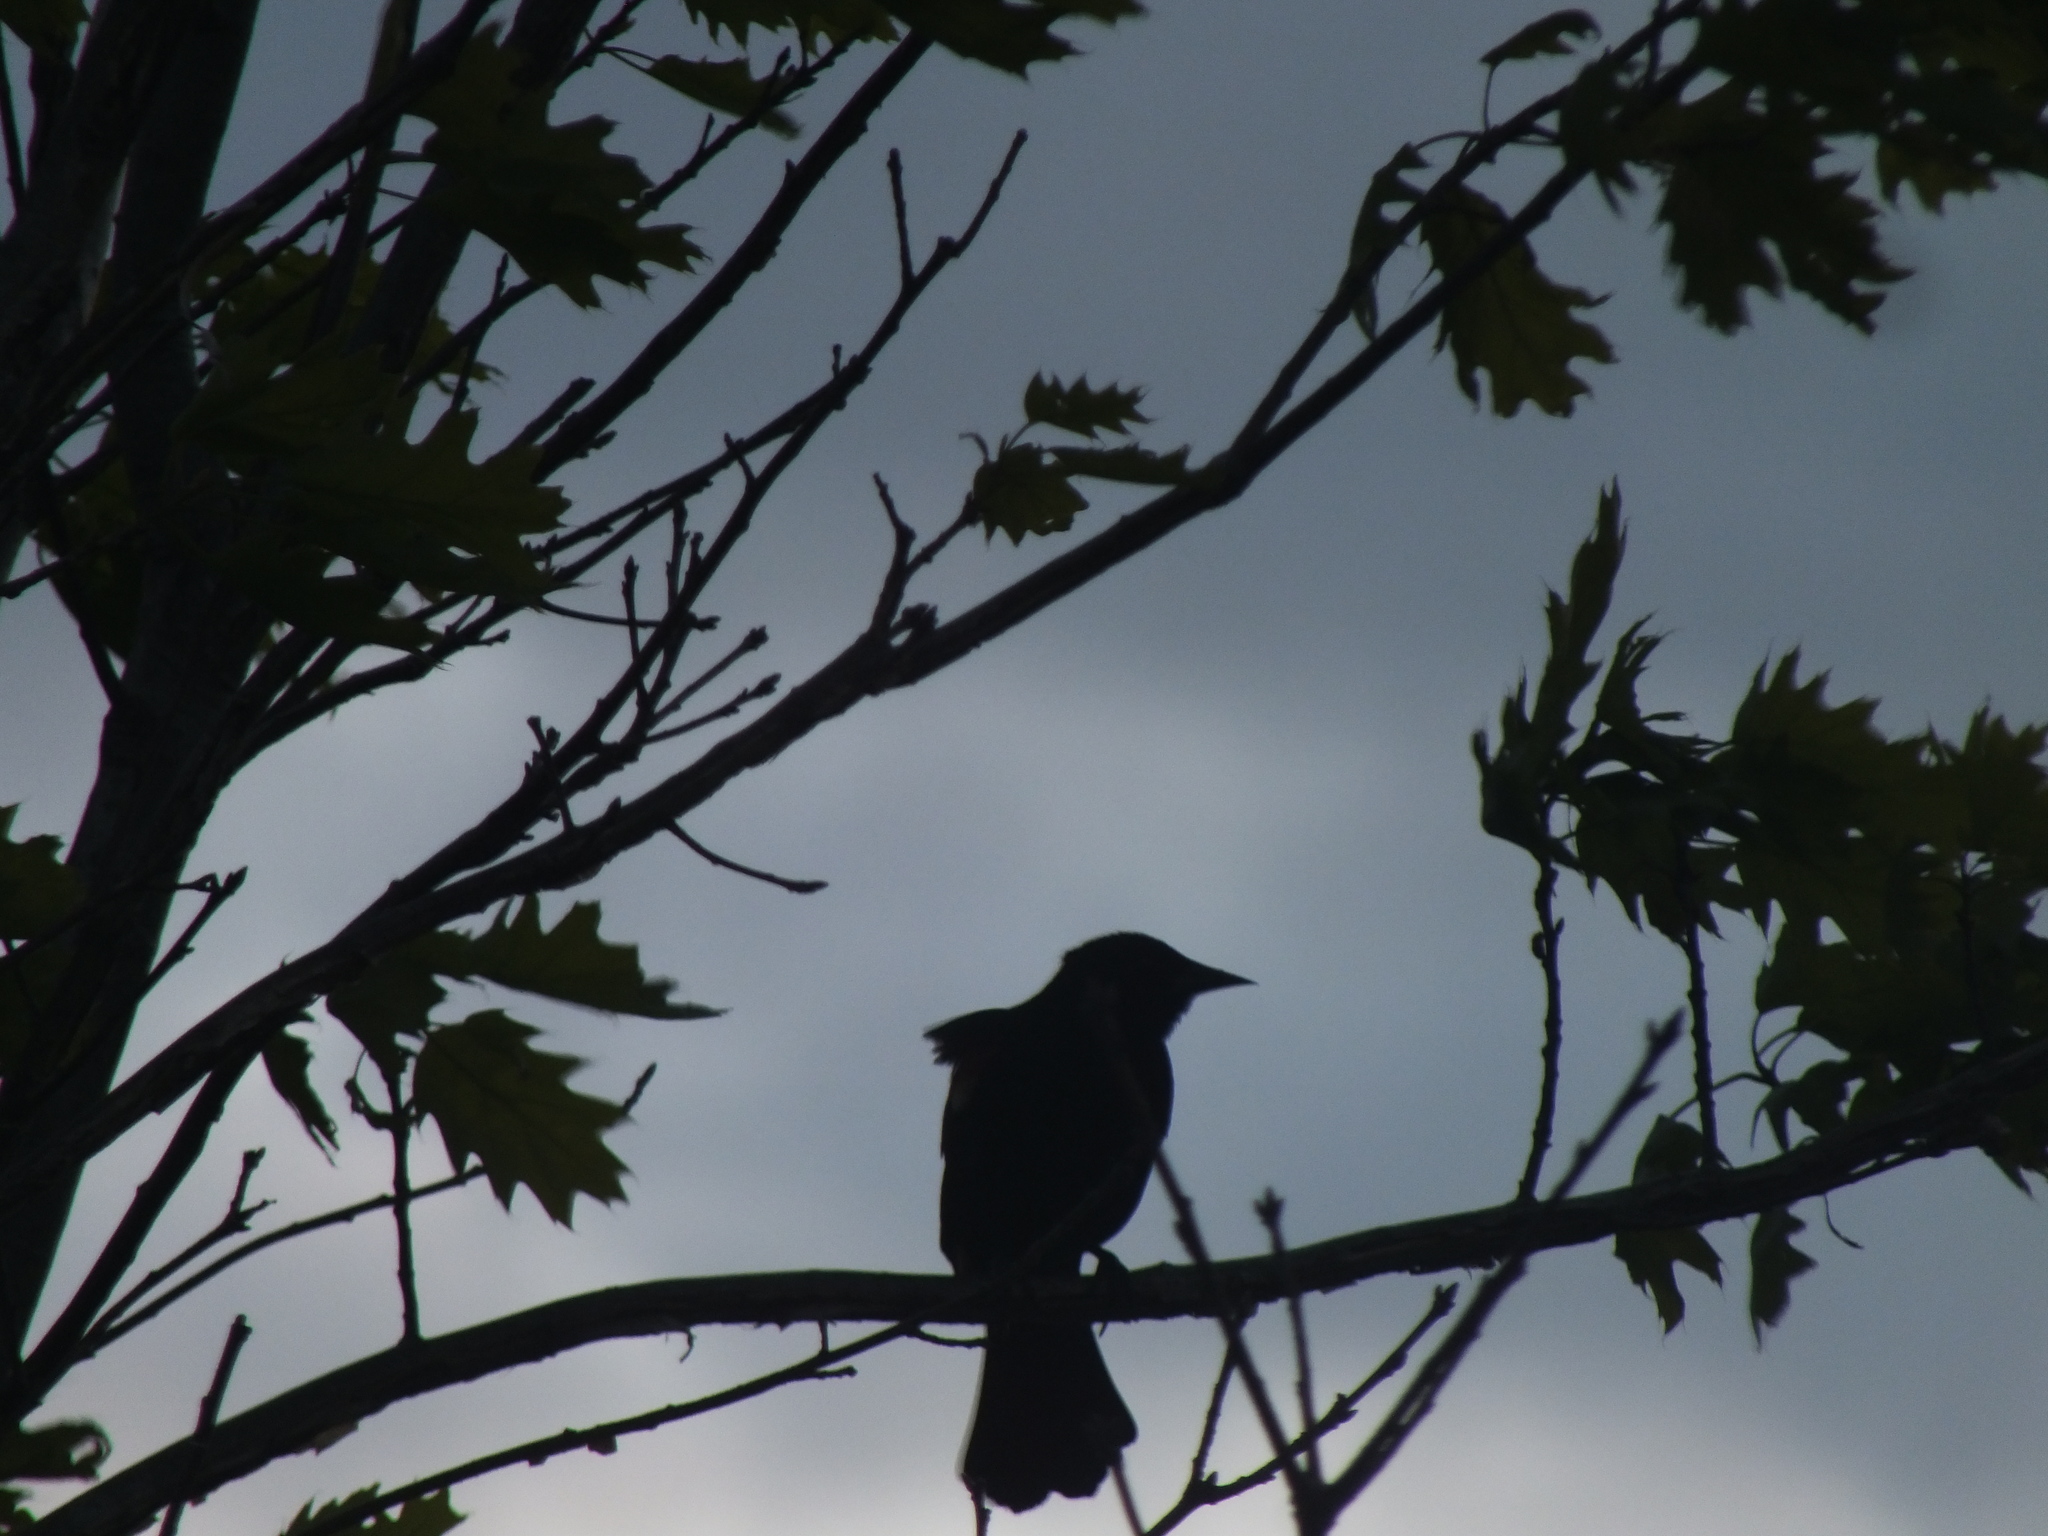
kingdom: Animalia
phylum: Chordata
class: Aves
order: Passeriformes
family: Icteridae
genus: Agelaius
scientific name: Agelaius phoeniceus
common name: Red-winged blackbird
